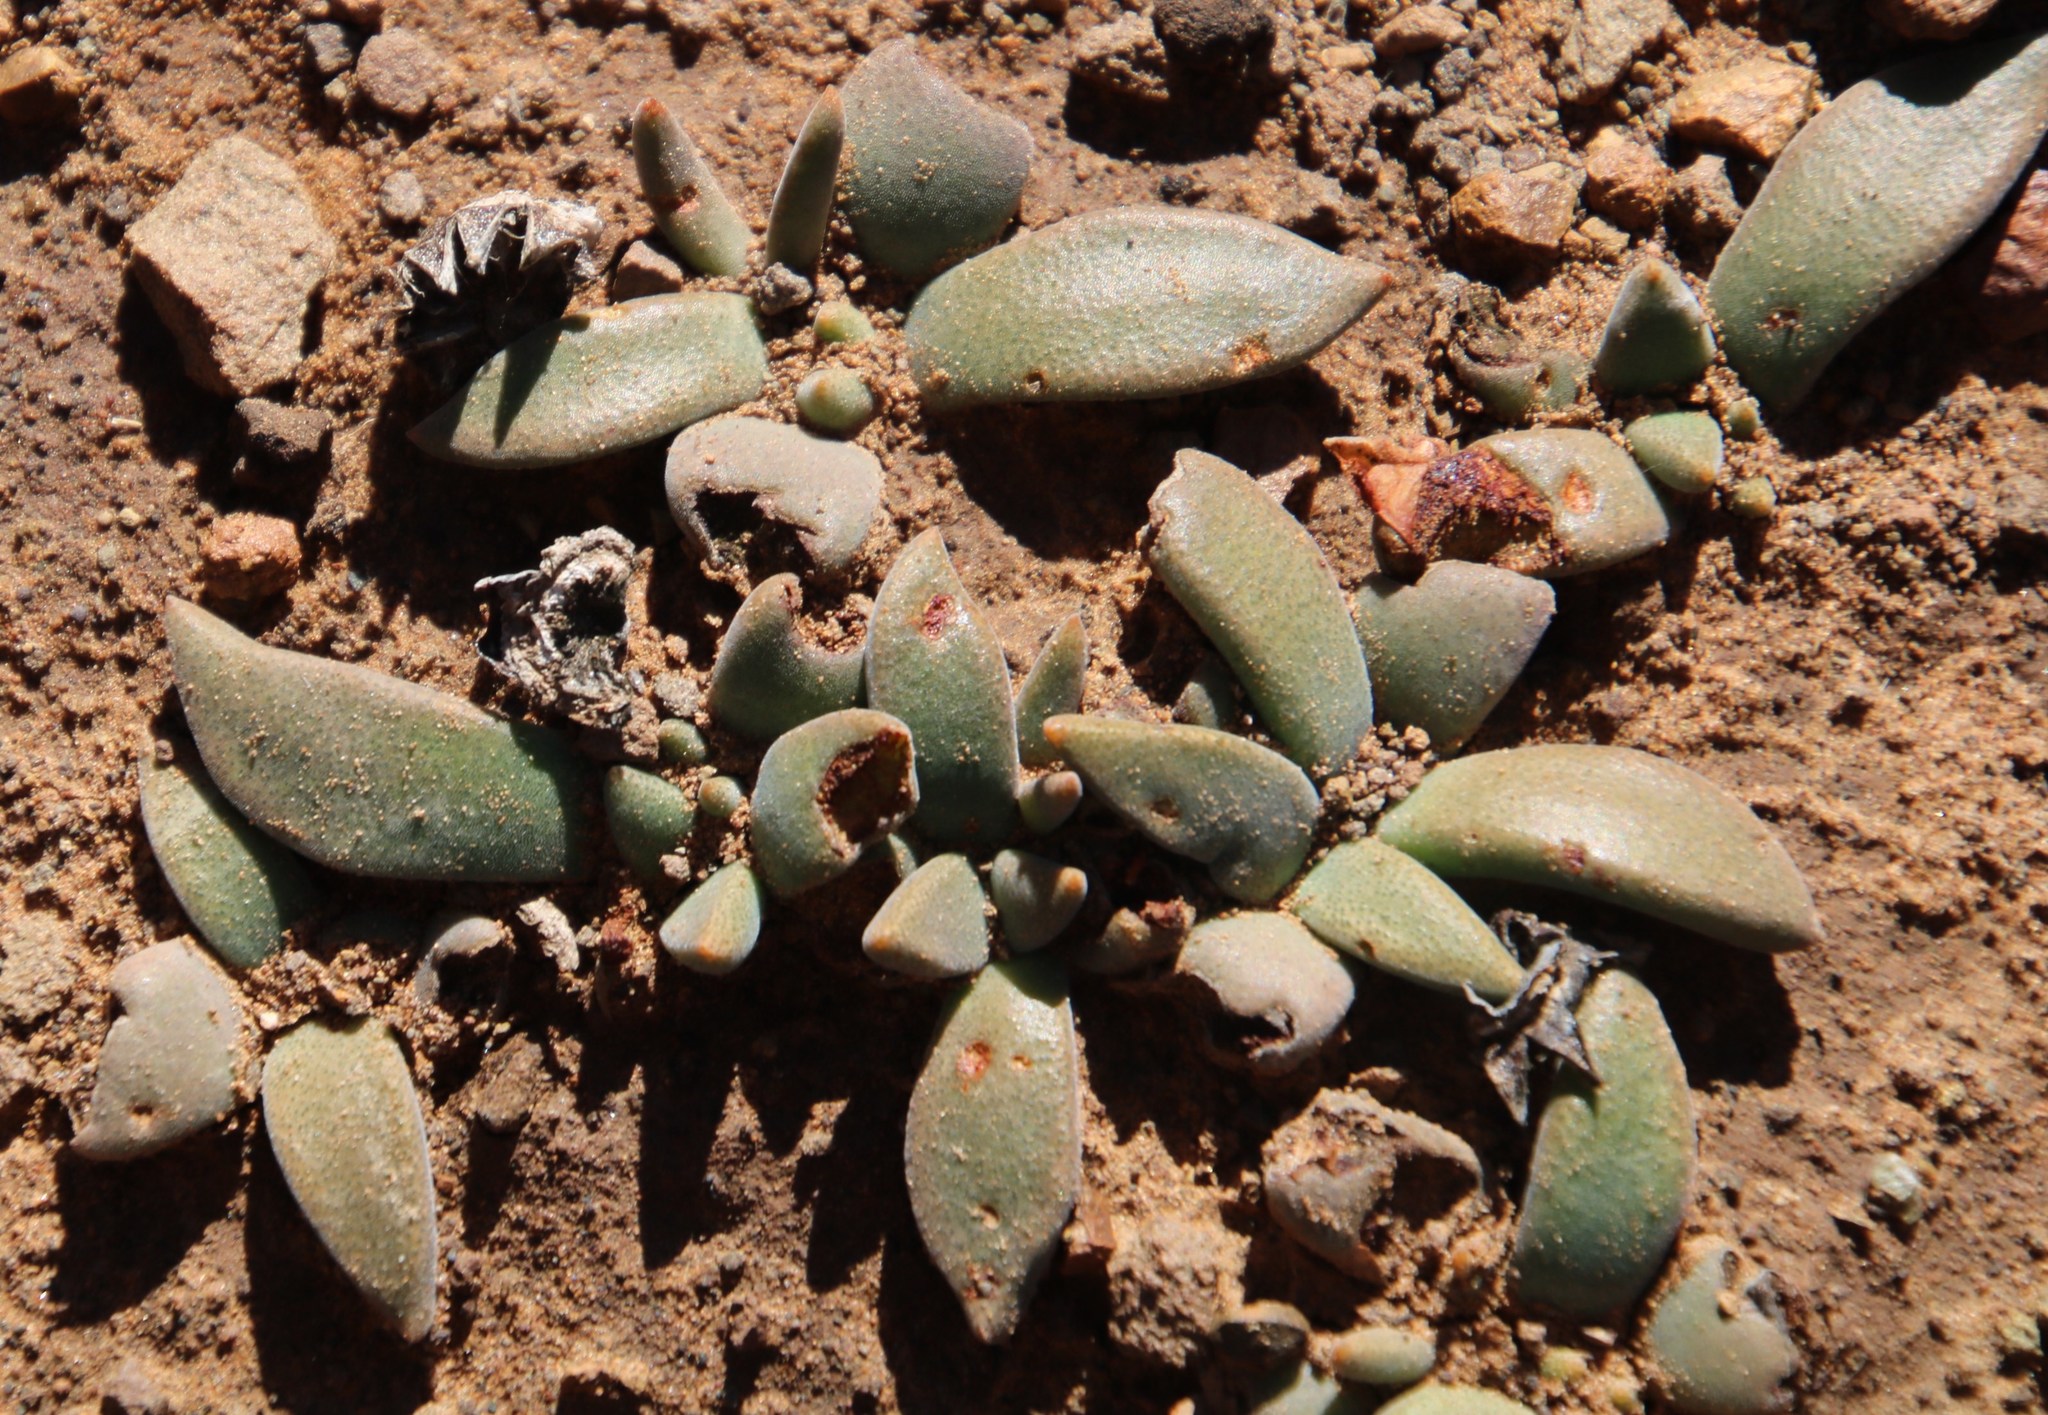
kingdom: Plantae
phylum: Tracheophyta
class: Magnoliopsida
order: Caryophyllales
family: Aizoaceae
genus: Deilanthe
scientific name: Deilanthe peersii
